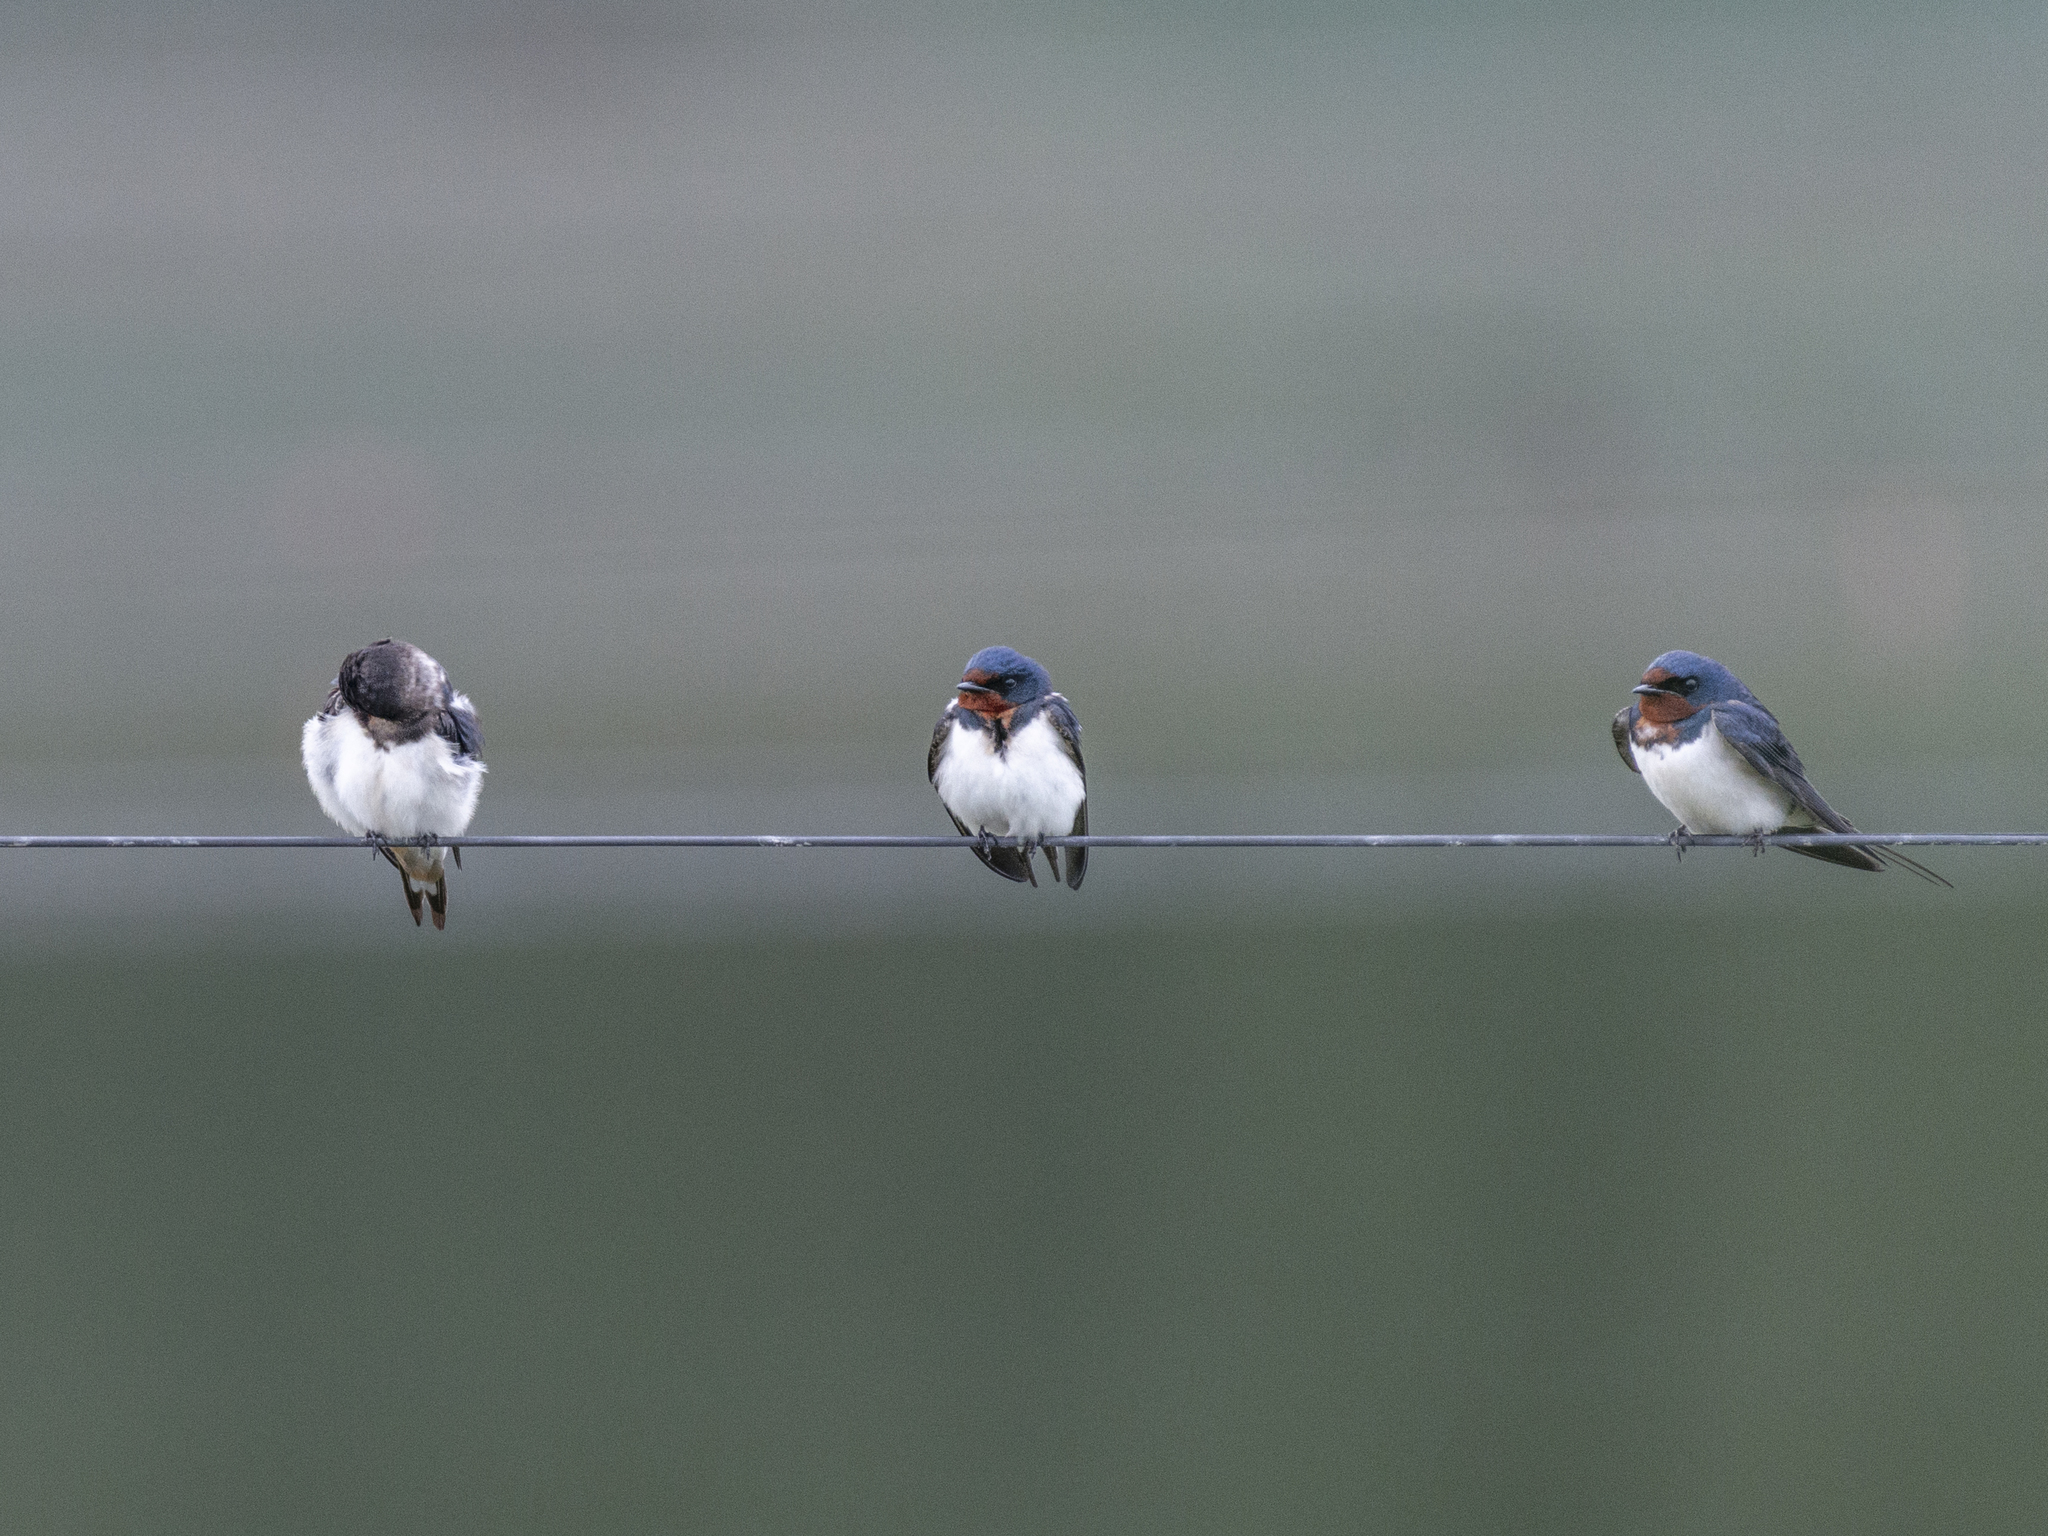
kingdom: Animalia
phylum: Chordata
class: Aves
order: Passeriformes
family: Hirundinidae
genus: Hirundo
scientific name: Hirundo rustica
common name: Barn swallow
